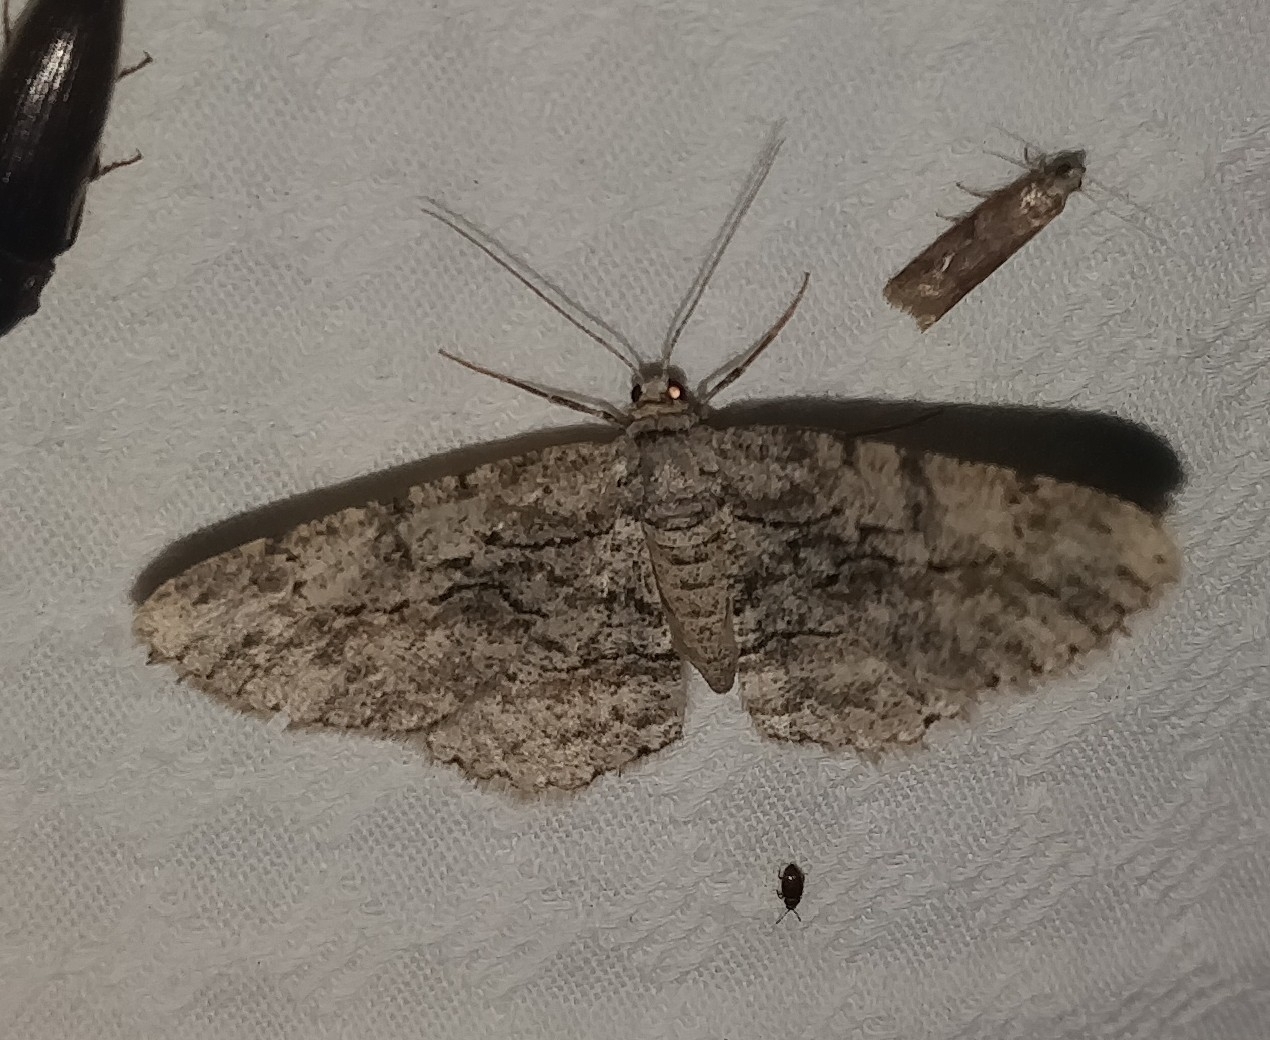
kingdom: Animalia
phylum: Arthropoda
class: Insecta
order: Lepidoptera
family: Geometridae
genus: Anavitrinella
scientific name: Anavitrinella pampinaria
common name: Common gray
